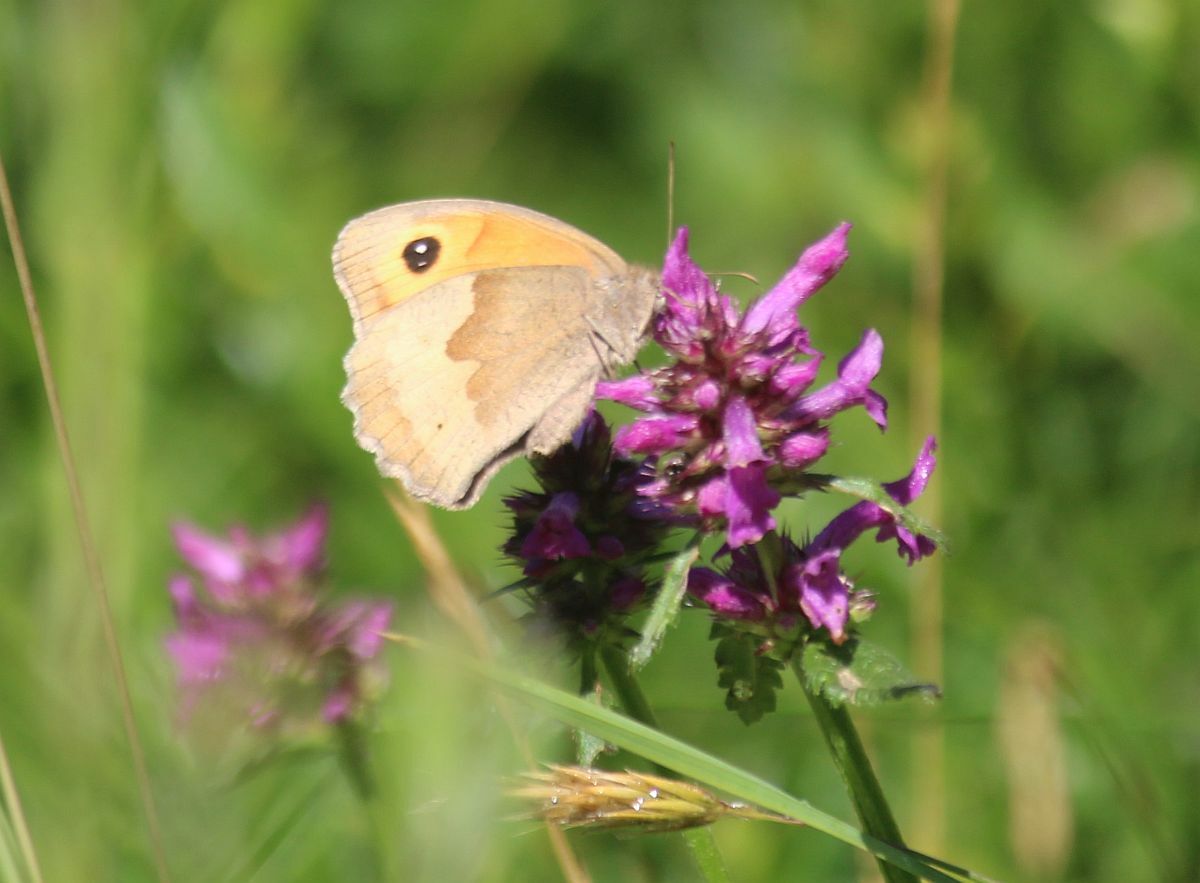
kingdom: Animalia
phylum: Arthropoda
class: Insecta
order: Lepidoptera
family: Nymphalidae
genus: Maniola
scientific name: Maniola jurtina
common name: Meadow brown
